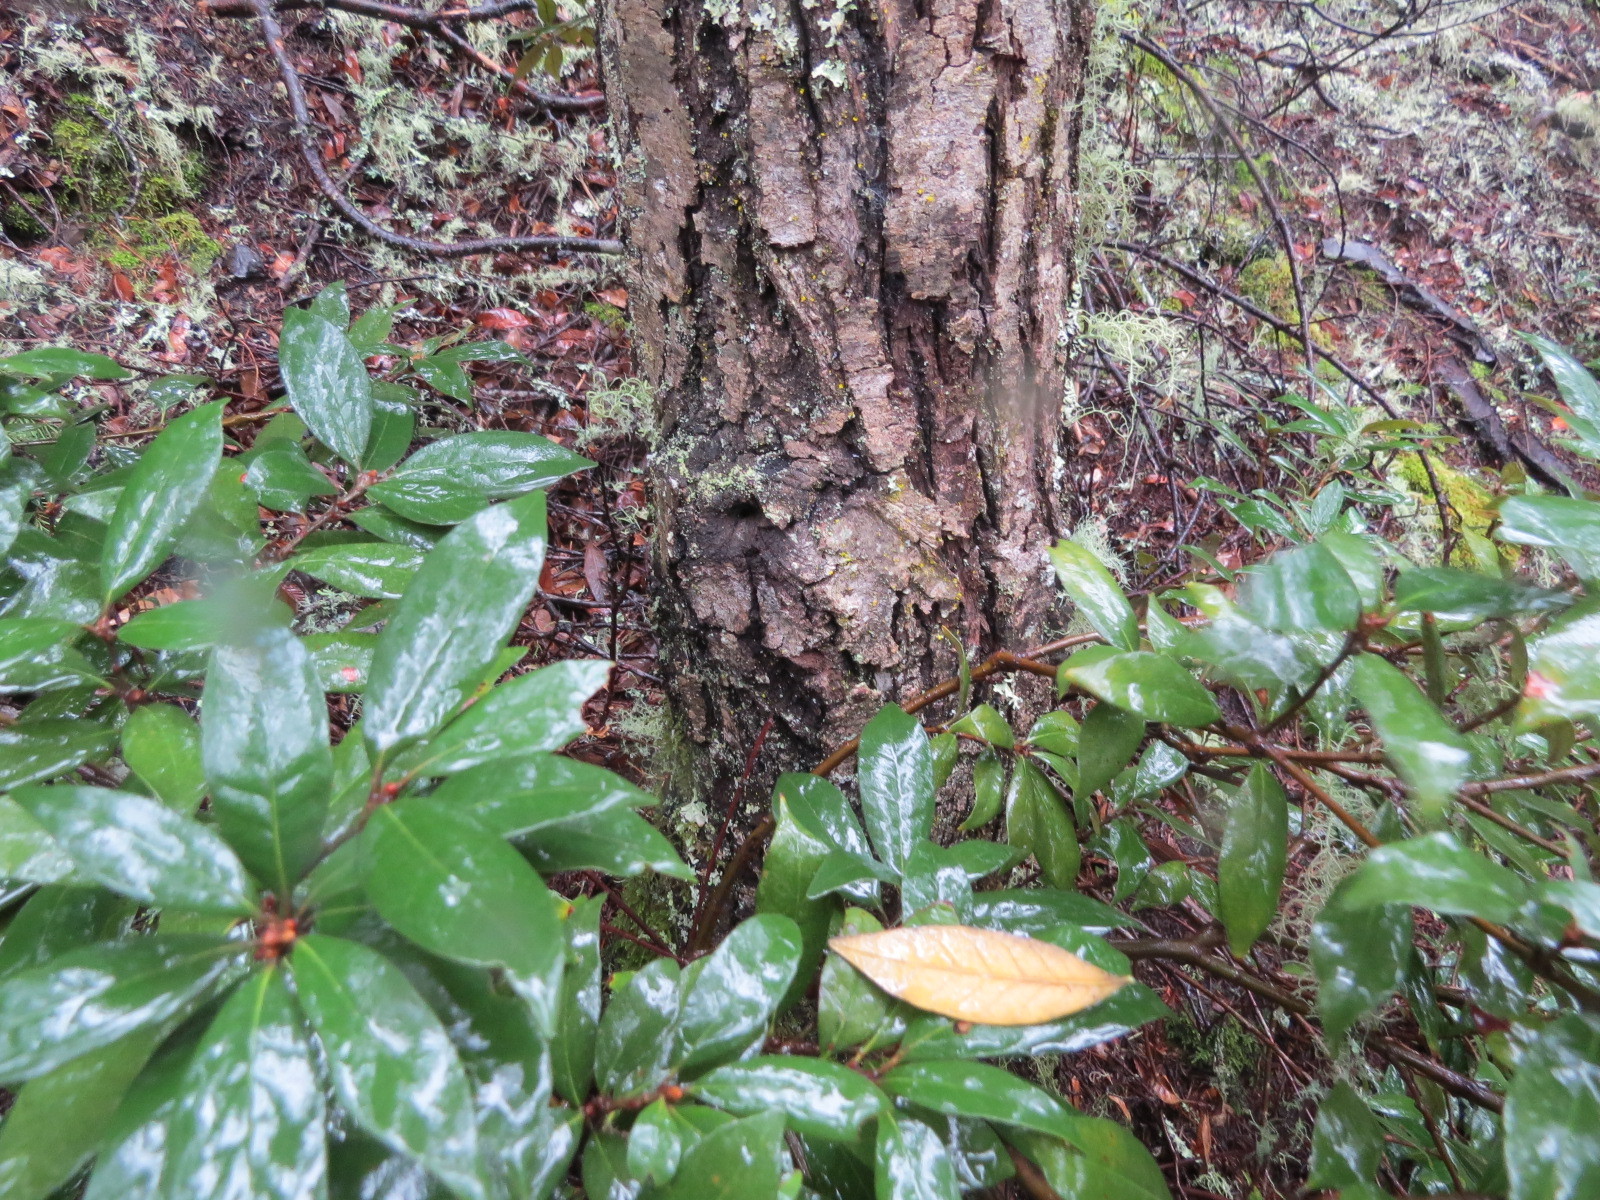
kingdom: Plantae
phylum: Tracheophyta
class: Magnoliopsida
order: Fagales
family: Fagaceae
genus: Chrysolepis
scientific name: Chrysolepis chrysophylla
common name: Giant chinquapin
